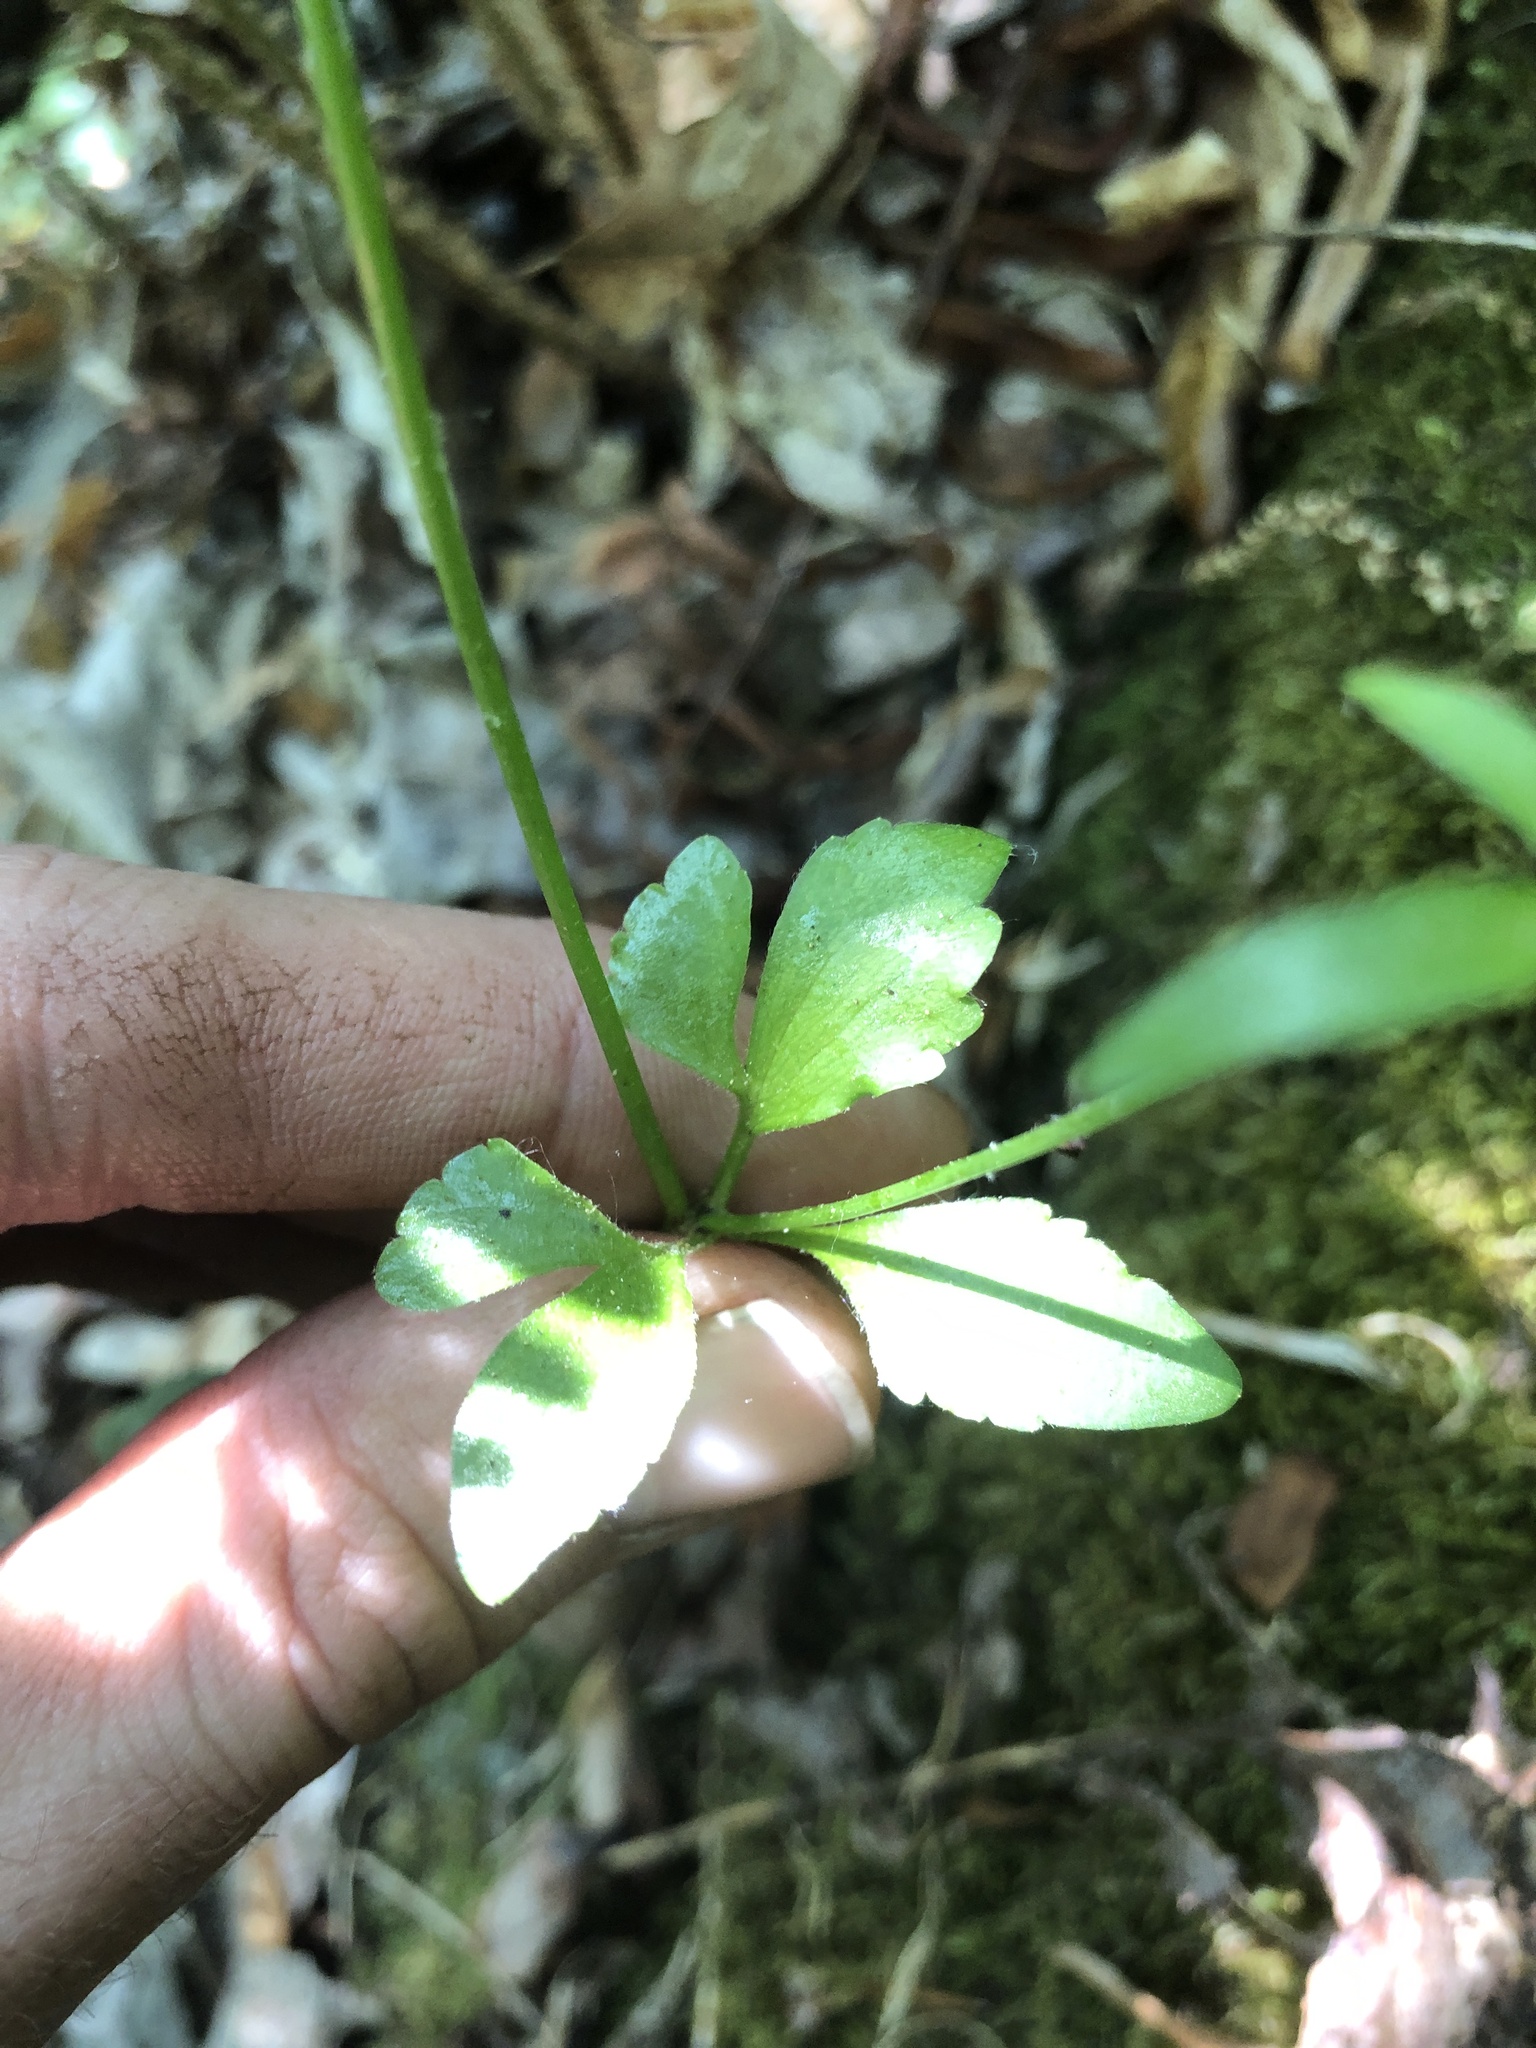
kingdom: Plantae
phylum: Tracheophyta
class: Magnoliopsida
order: Ranunculales
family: Ranunculaceae
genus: Ranunculus
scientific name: Ranunculus abortivus
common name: Early wood buttercup
